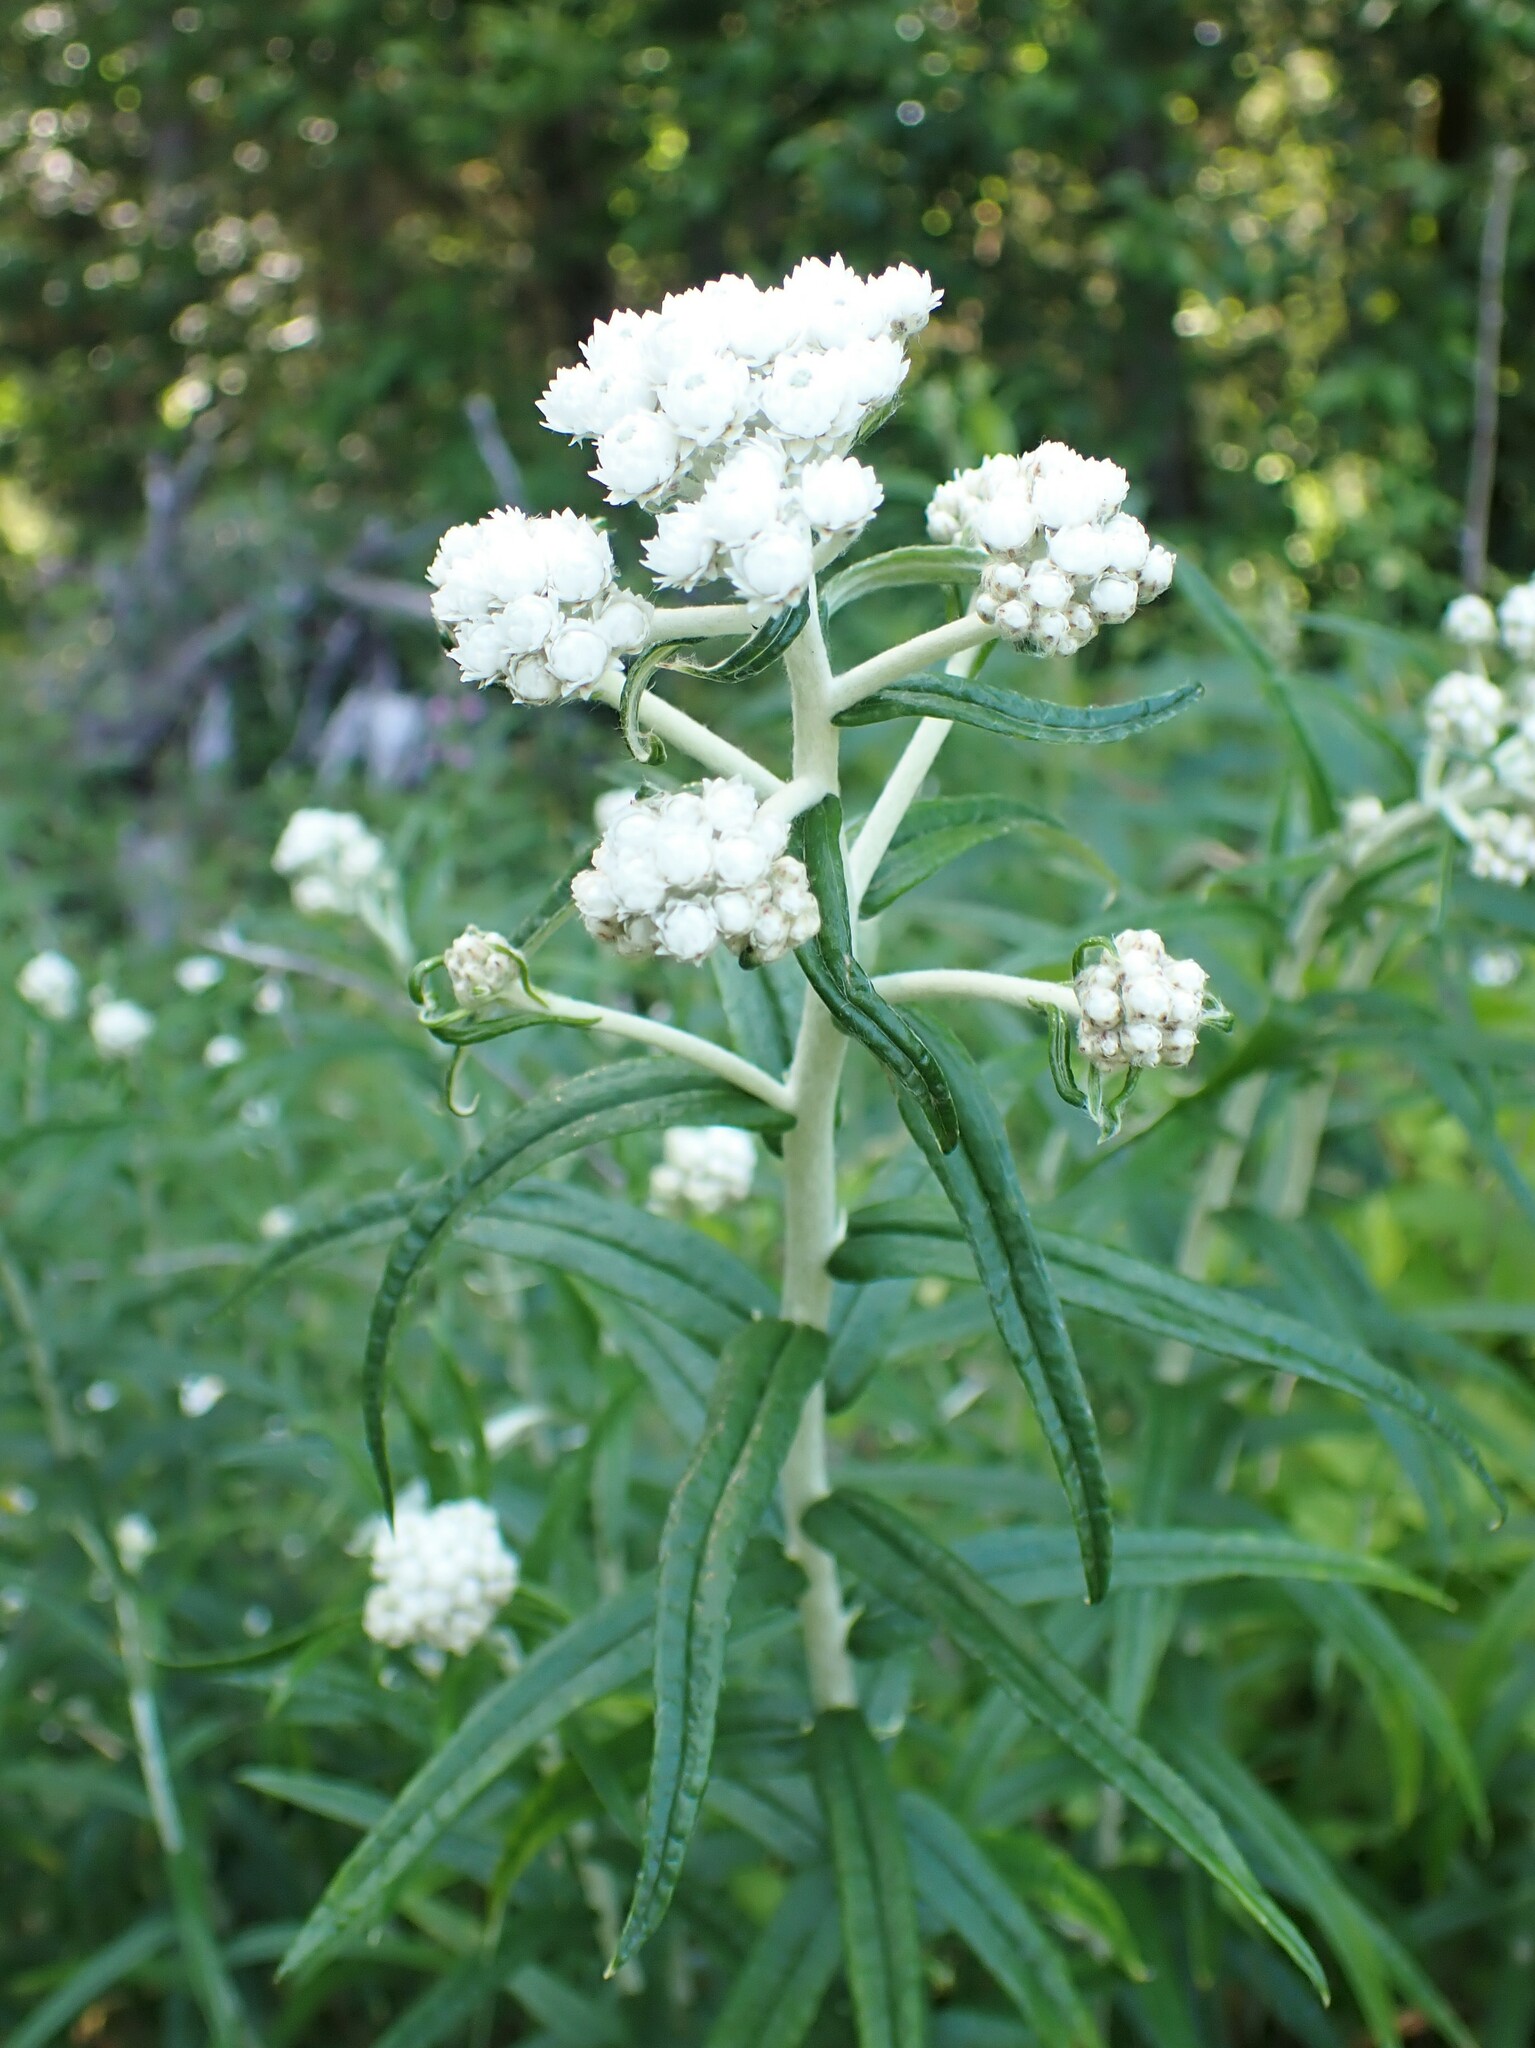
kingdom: Plantae
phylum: Tracheophyta
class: Magnoliopsida
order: Asterales
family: Asteraceae
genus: Anaphalis
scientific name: Anaphalis margaritacea
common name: Pearly everlasting
